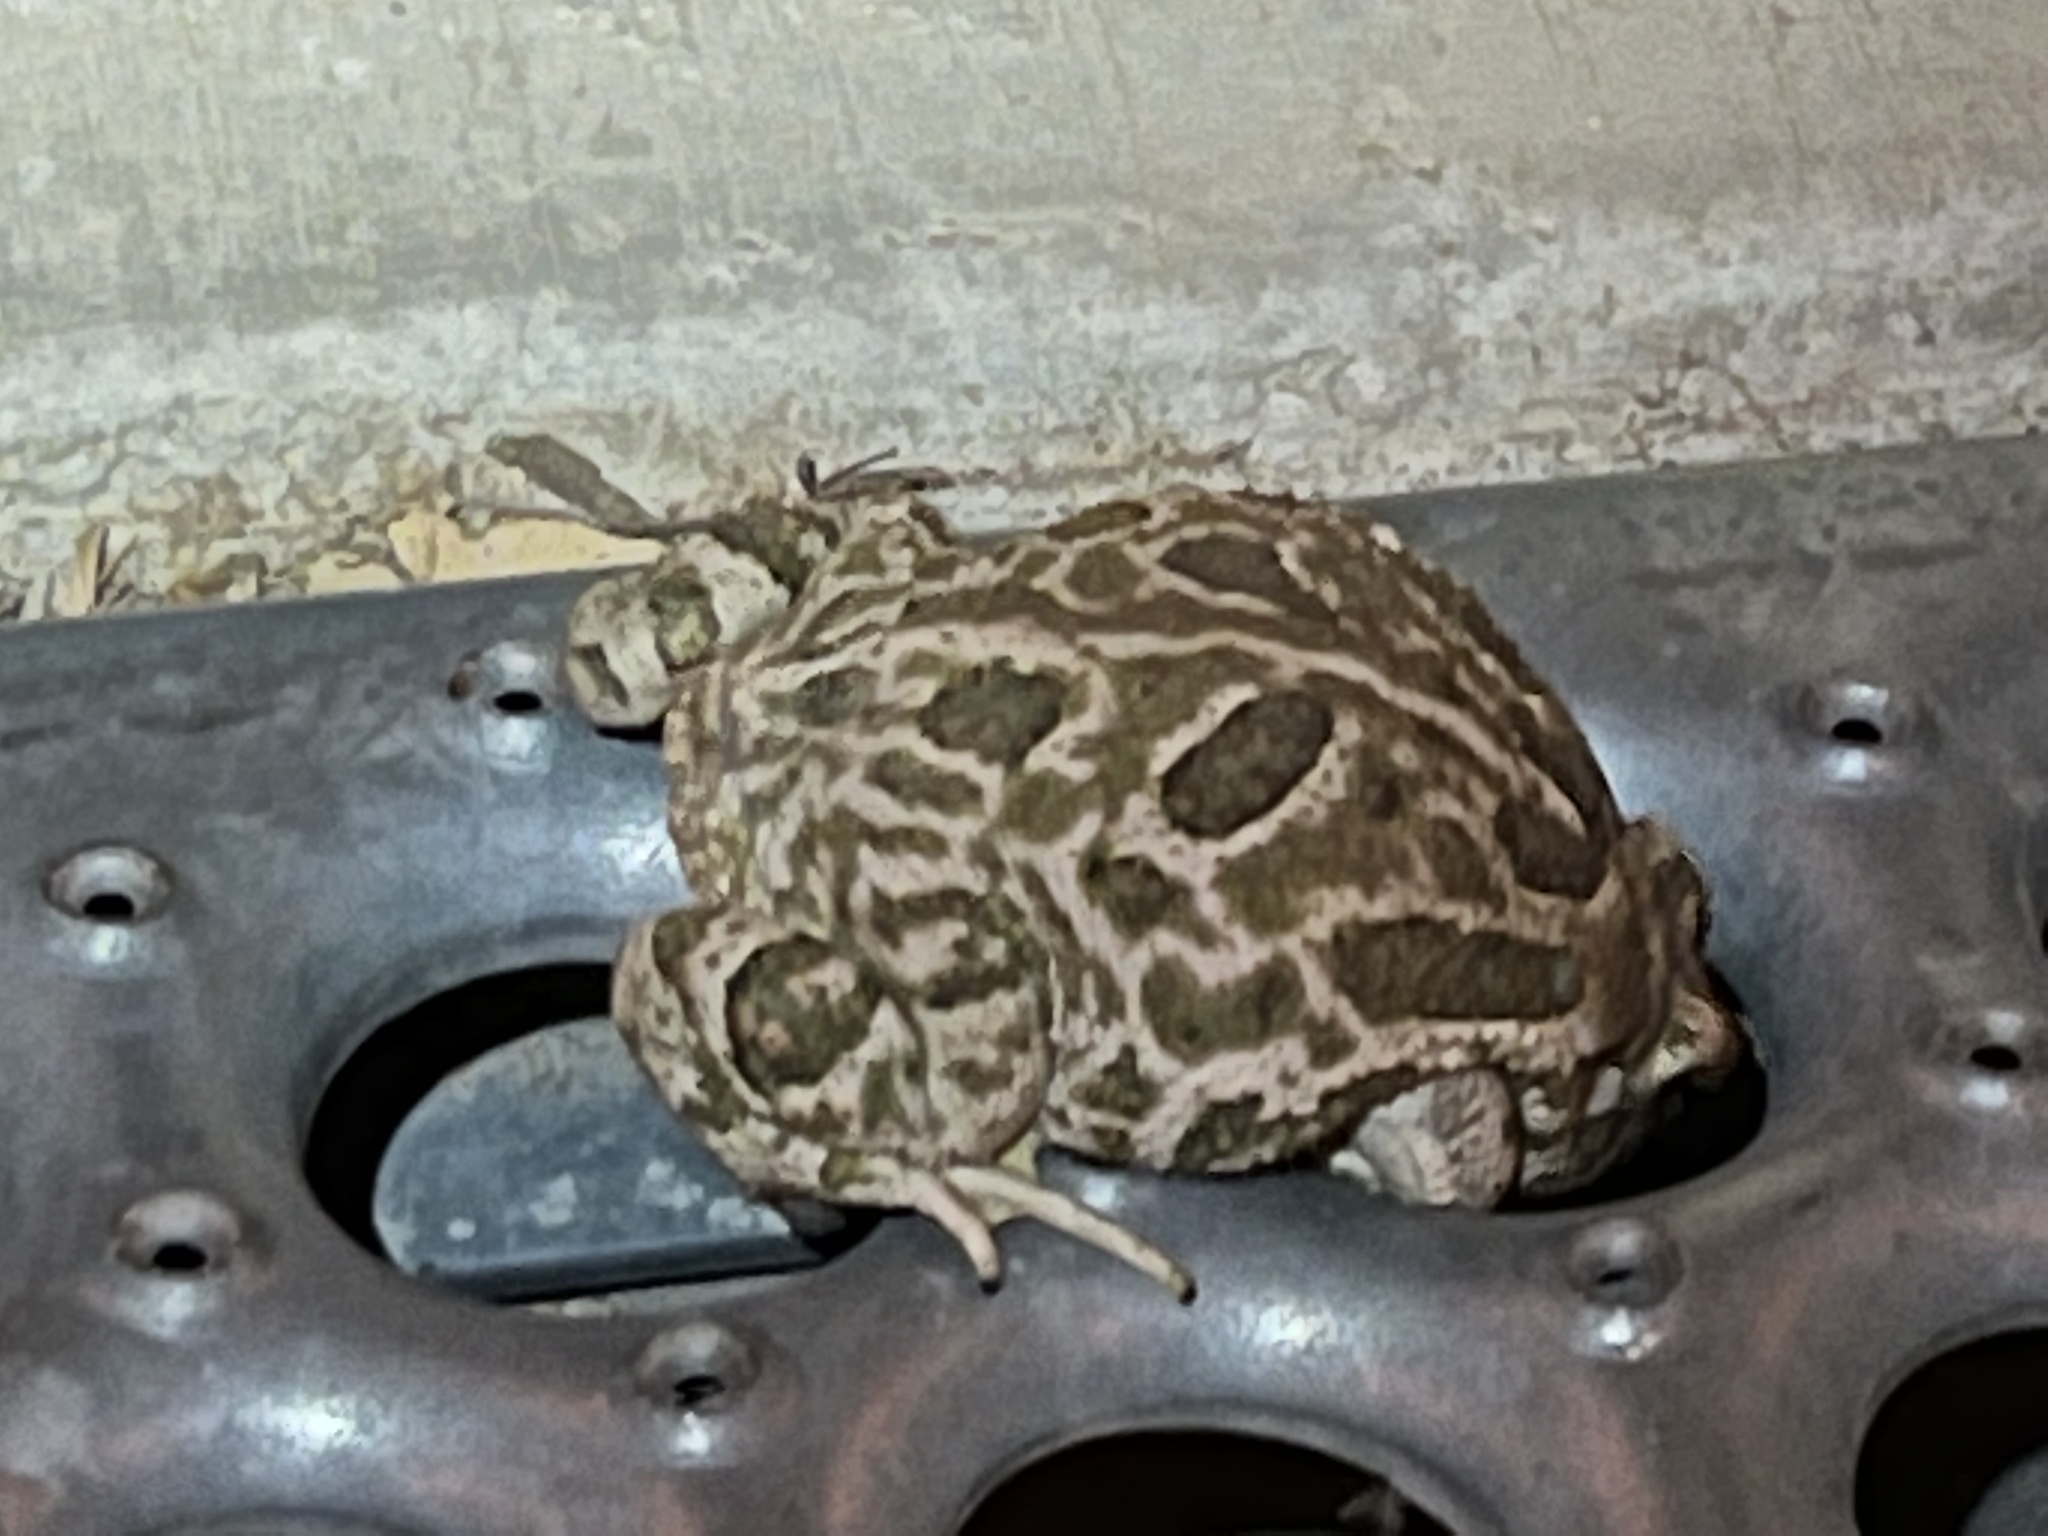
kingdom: Animalia
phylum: Chordata
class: Amphibia
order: Anura
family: Bufonidae
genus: Anaxyrus
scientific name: Anaxyrus cognatus
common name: Great plains toad
